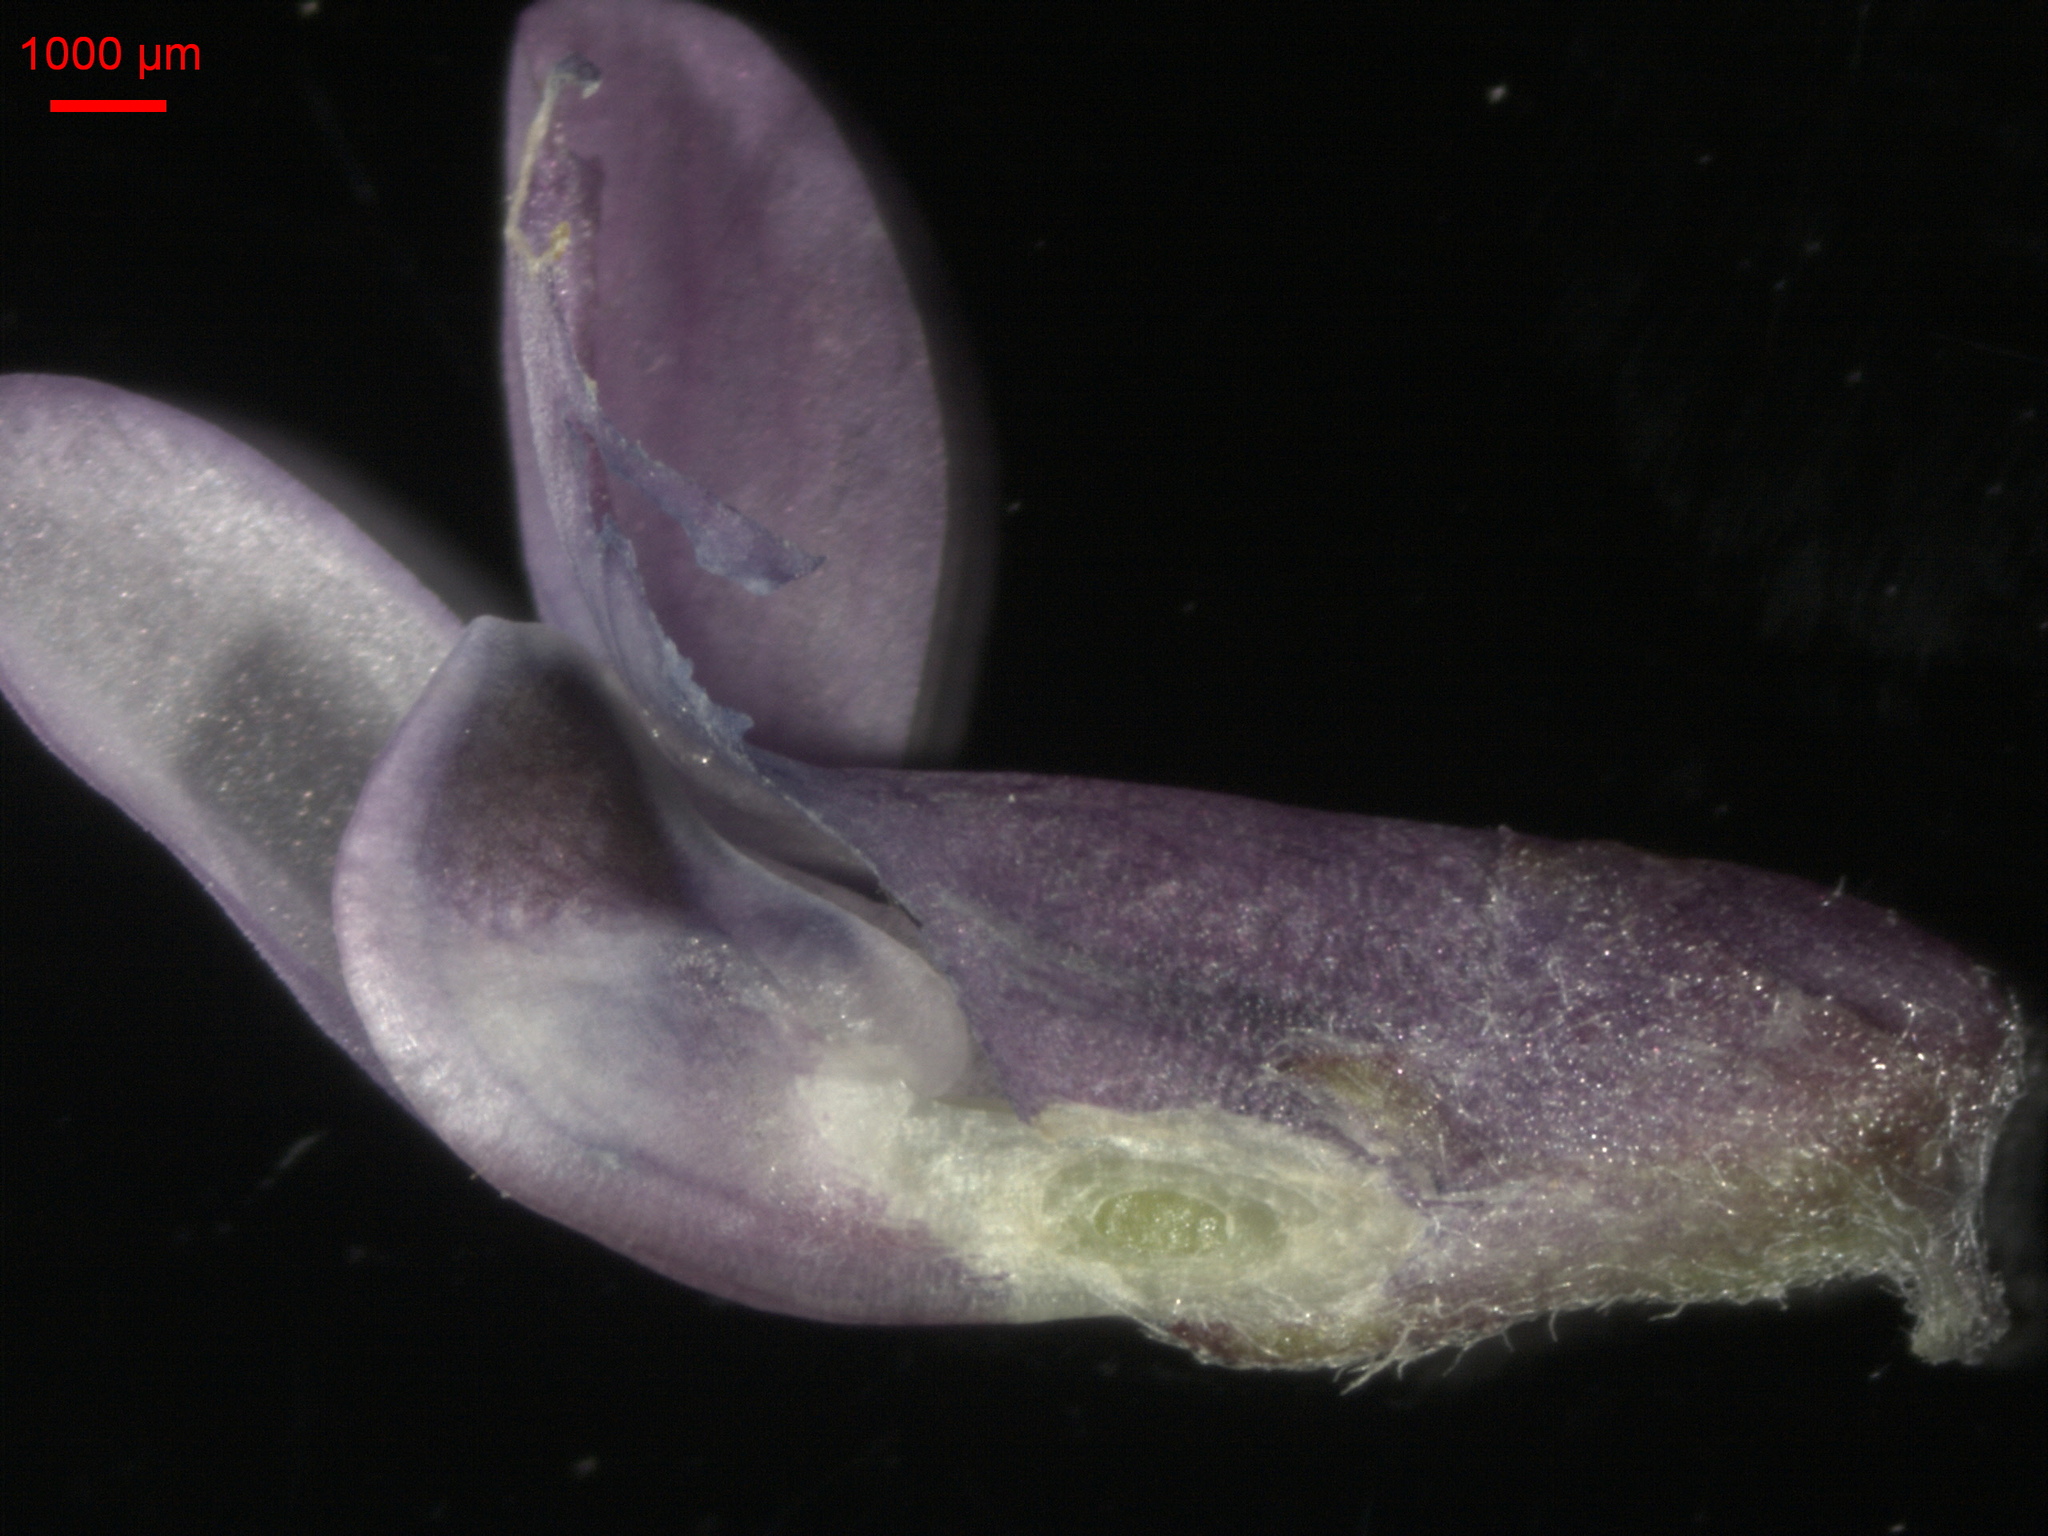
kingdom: Plantae
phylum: Tracheophyta
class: Magnoliopsida
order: Fabales
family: Fabaceae
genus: Vicia
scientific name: Vicia cracca
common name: Bird vetch
